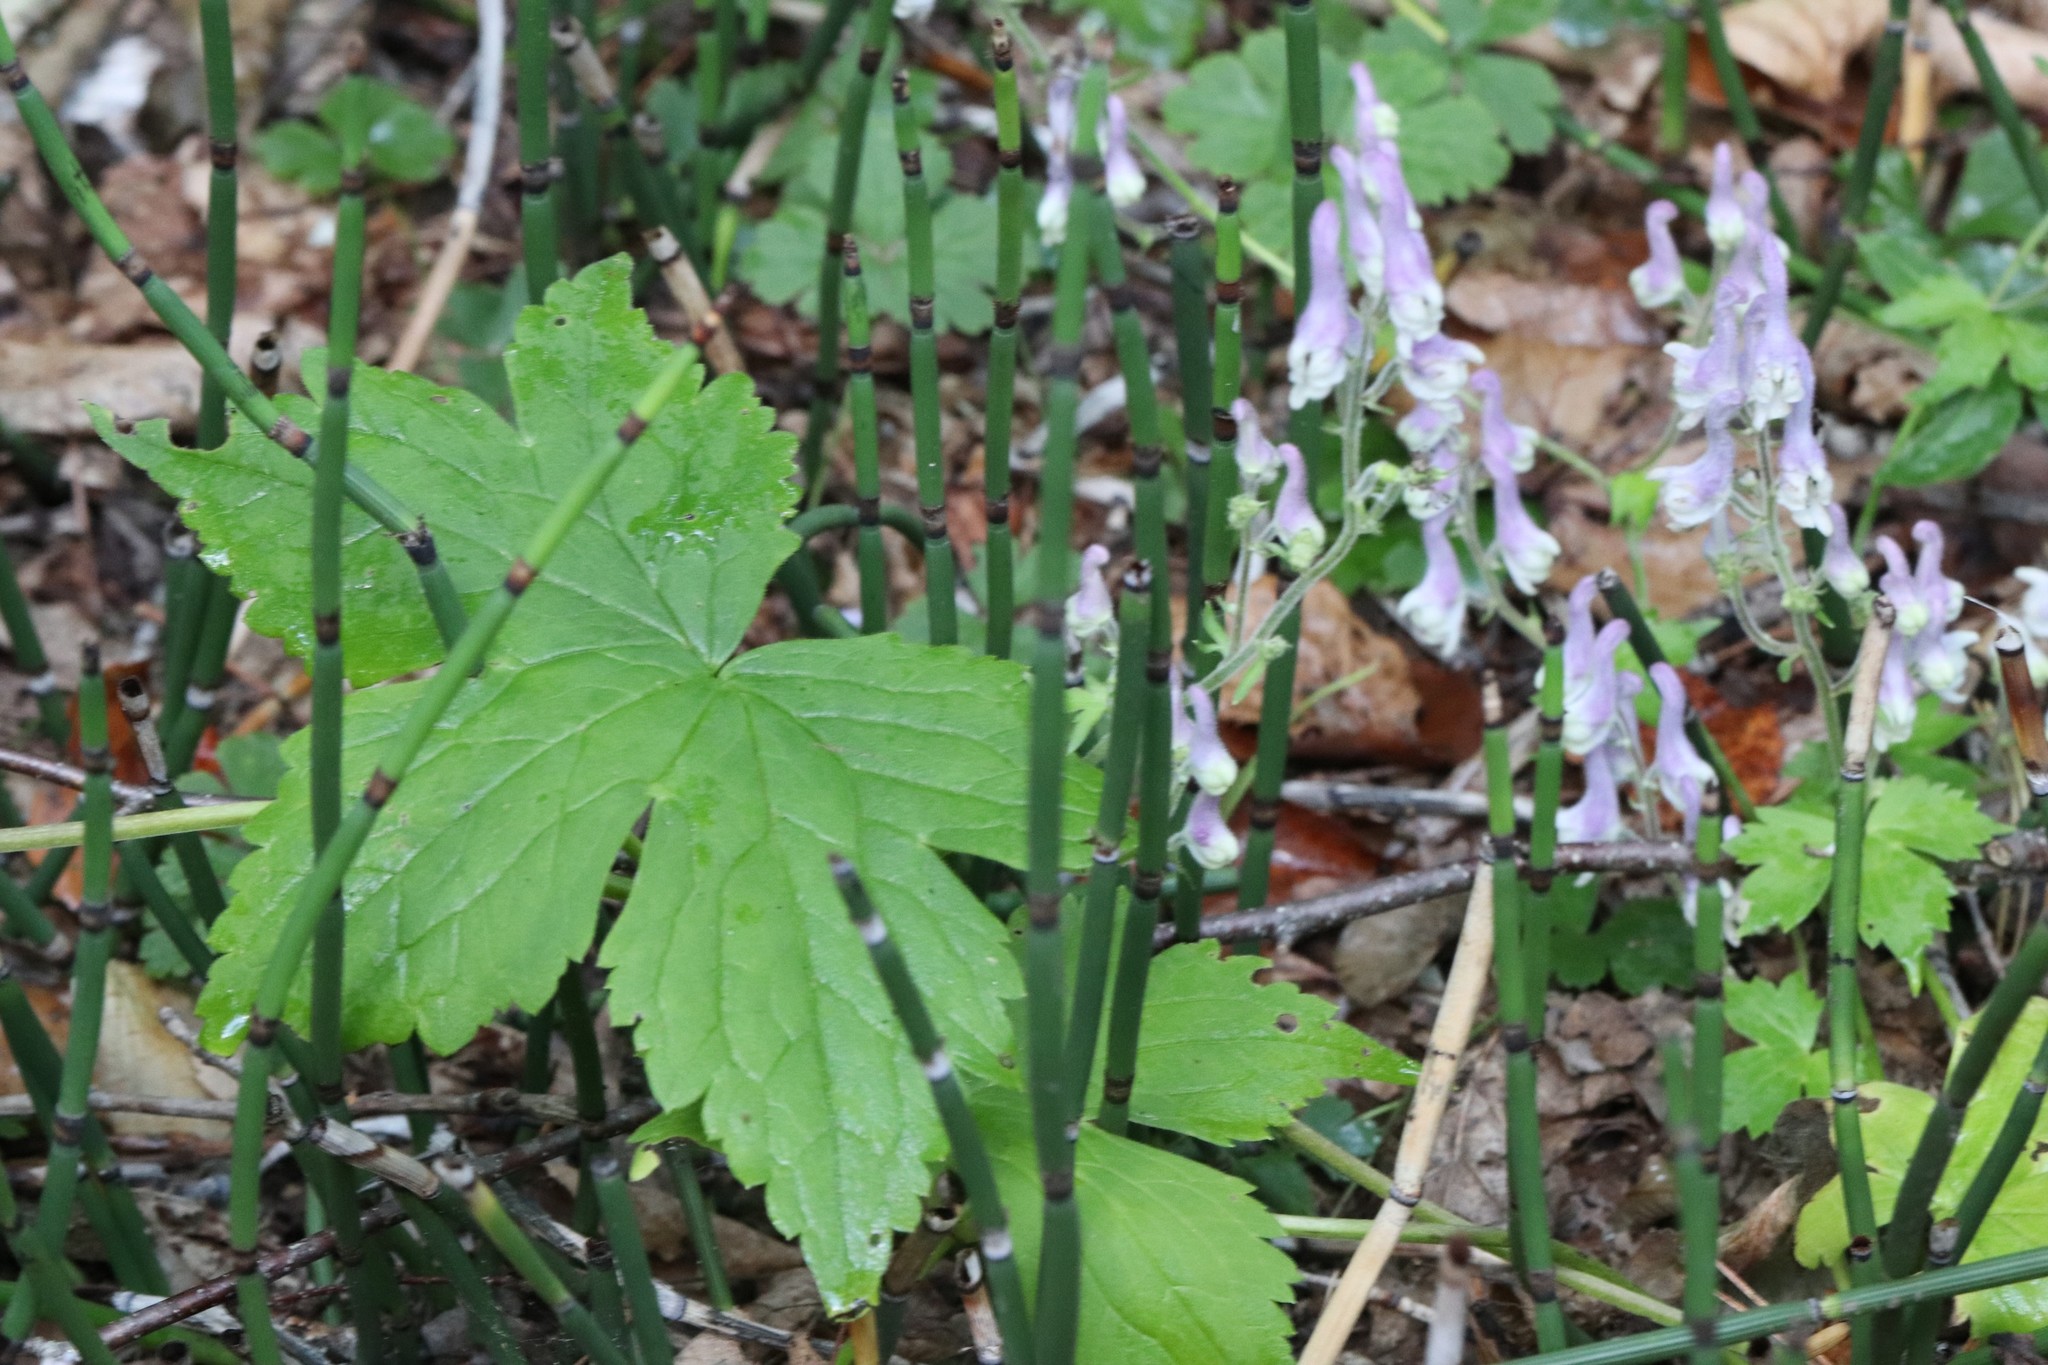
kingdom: Plantae
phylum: Tracheophyta
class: Polypodiopsida
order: Equisetales
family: Equisetaceae
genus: Equisetum
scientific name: Equisetum hyemale
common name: Rough horsetail
